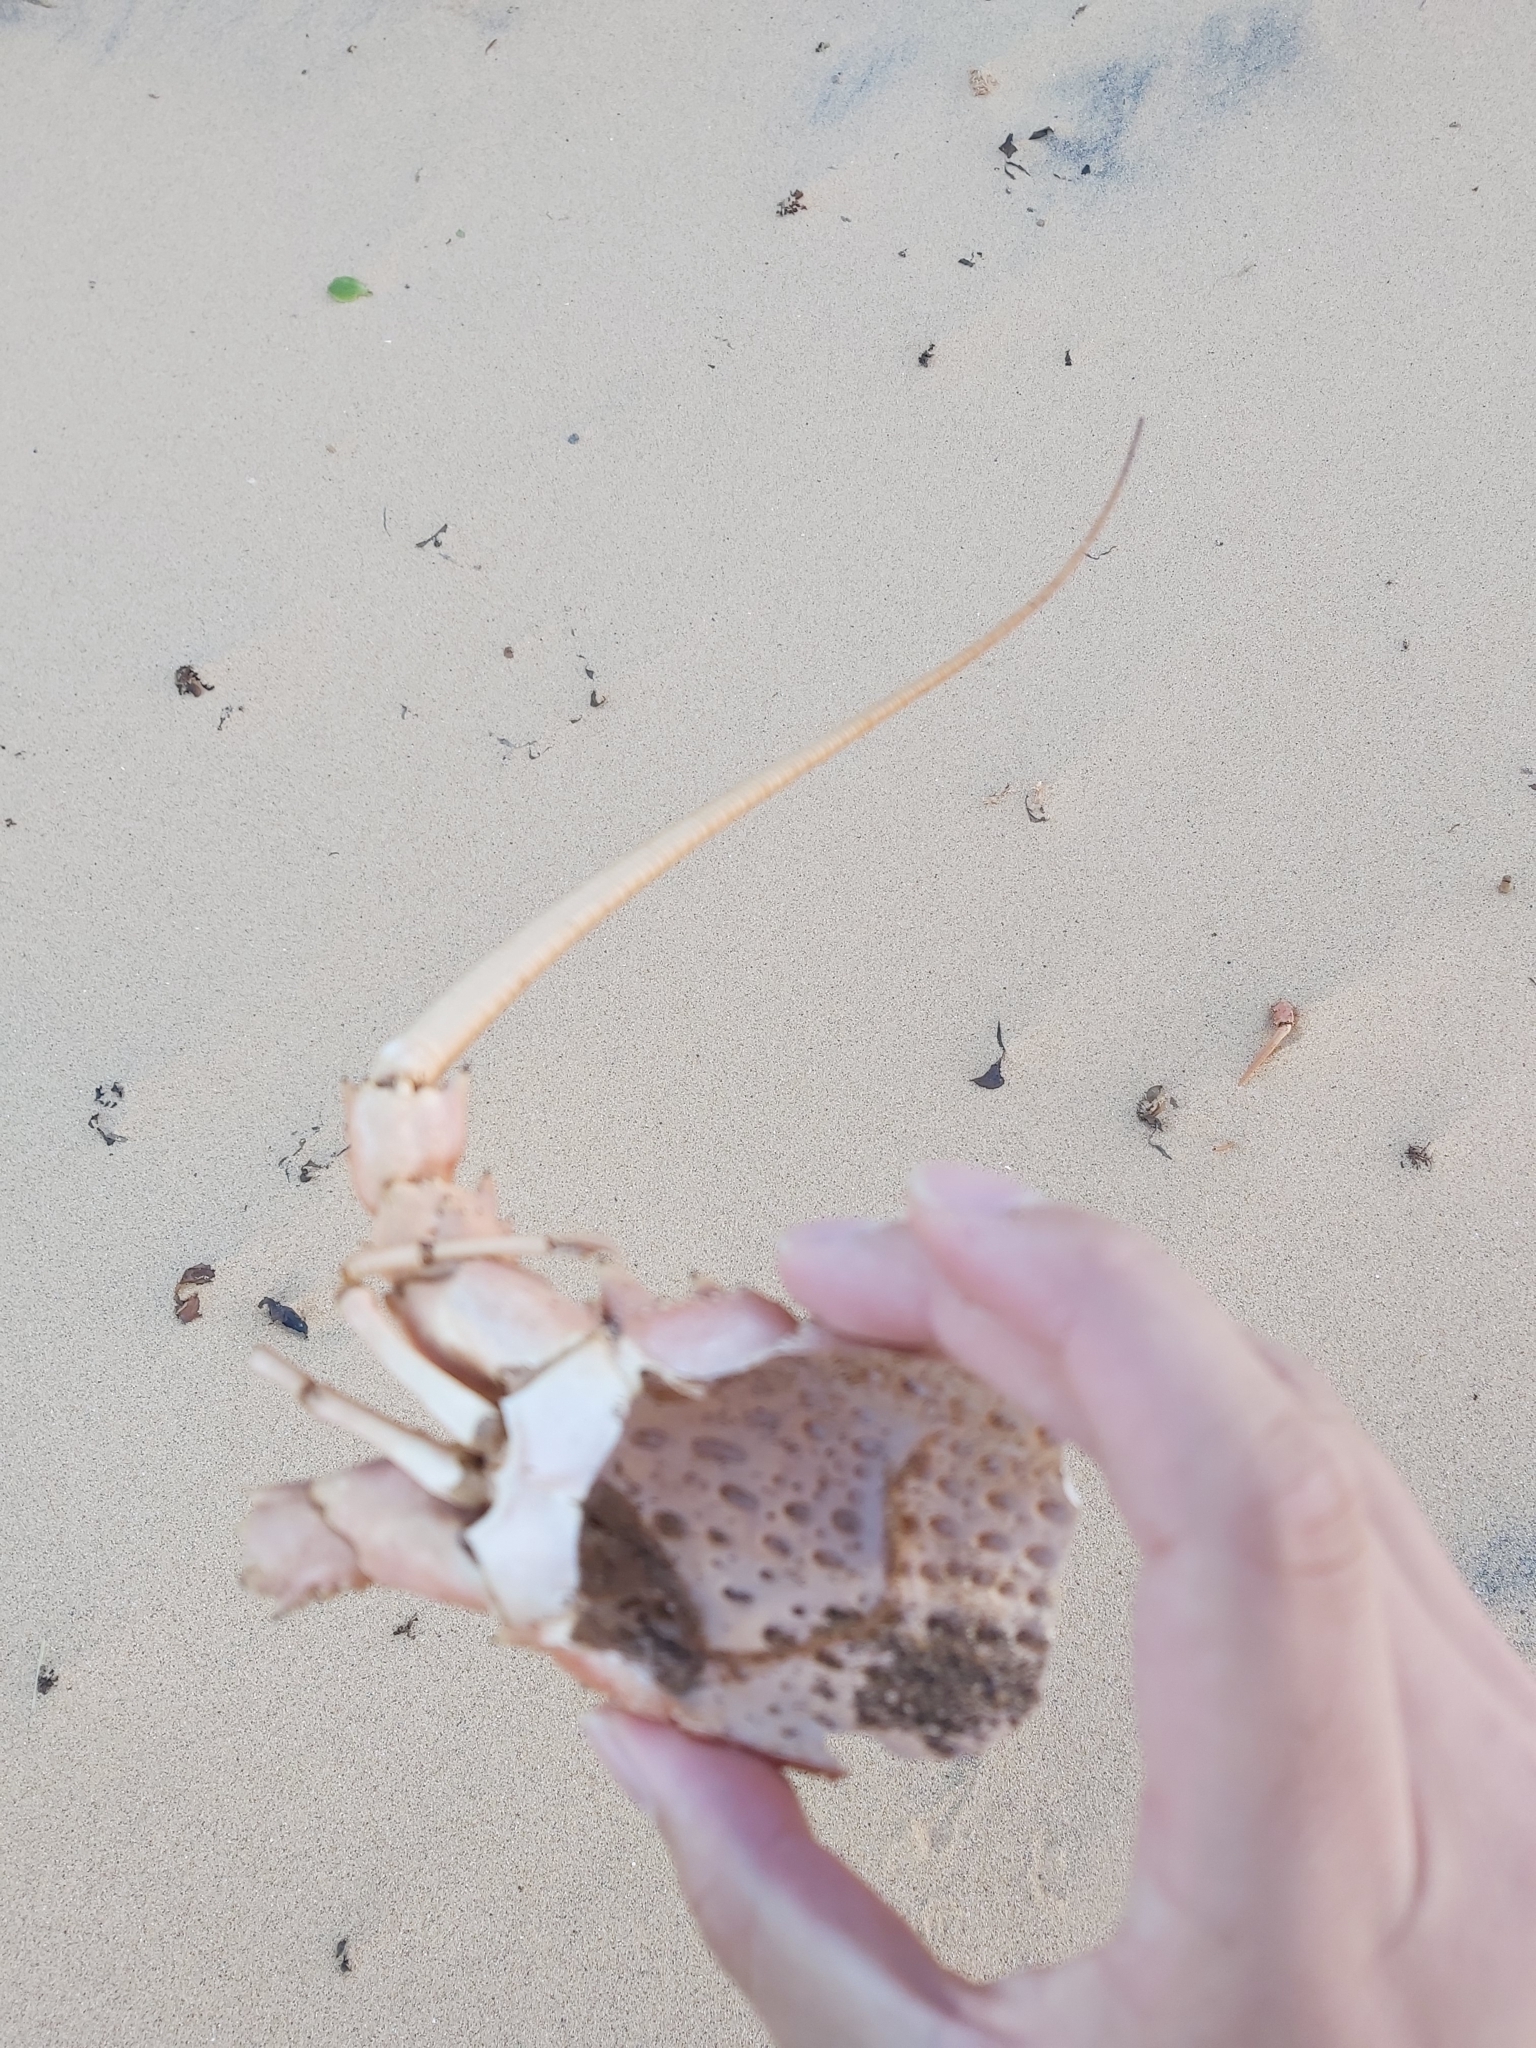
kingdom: Animalia
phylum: Arthropoda
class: Malacostraca
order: Decapoda
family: Palinuridae
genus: Sagmariasus
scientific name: Sagmariasus verreauxi
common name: Green rock lobster
